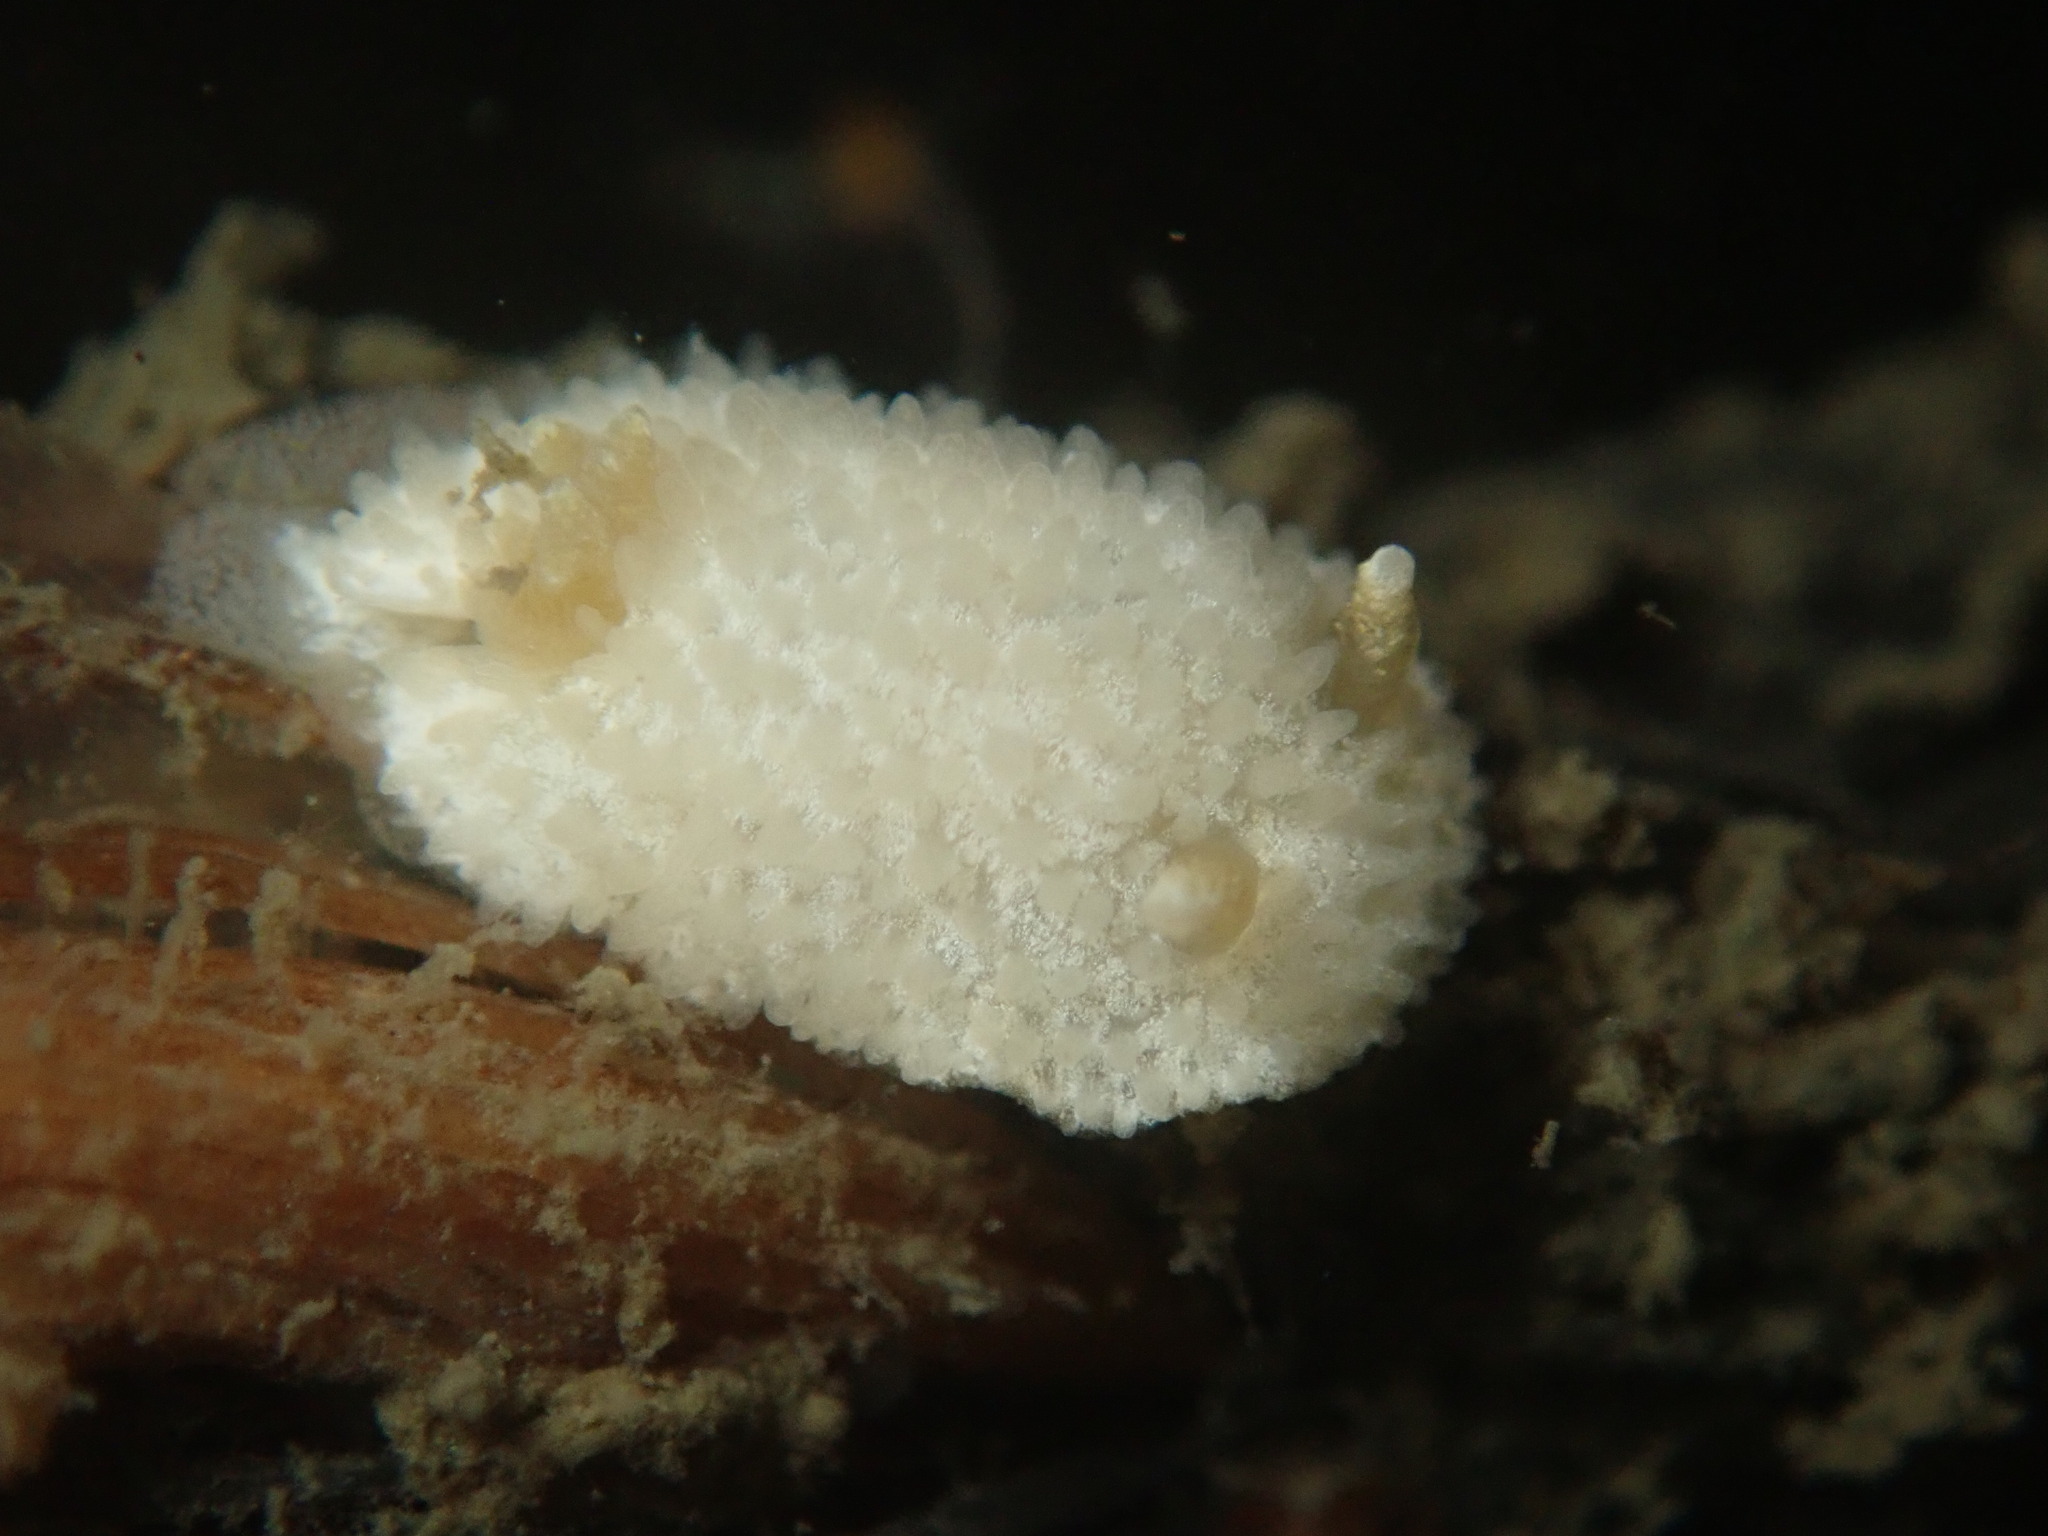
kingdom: Animalia
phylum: Mollusca
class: Gastropoda
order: Nudibranchia
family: Calycidorididae
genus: Diaphorodoris
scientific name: Diaphorodoris lirulatocauda
